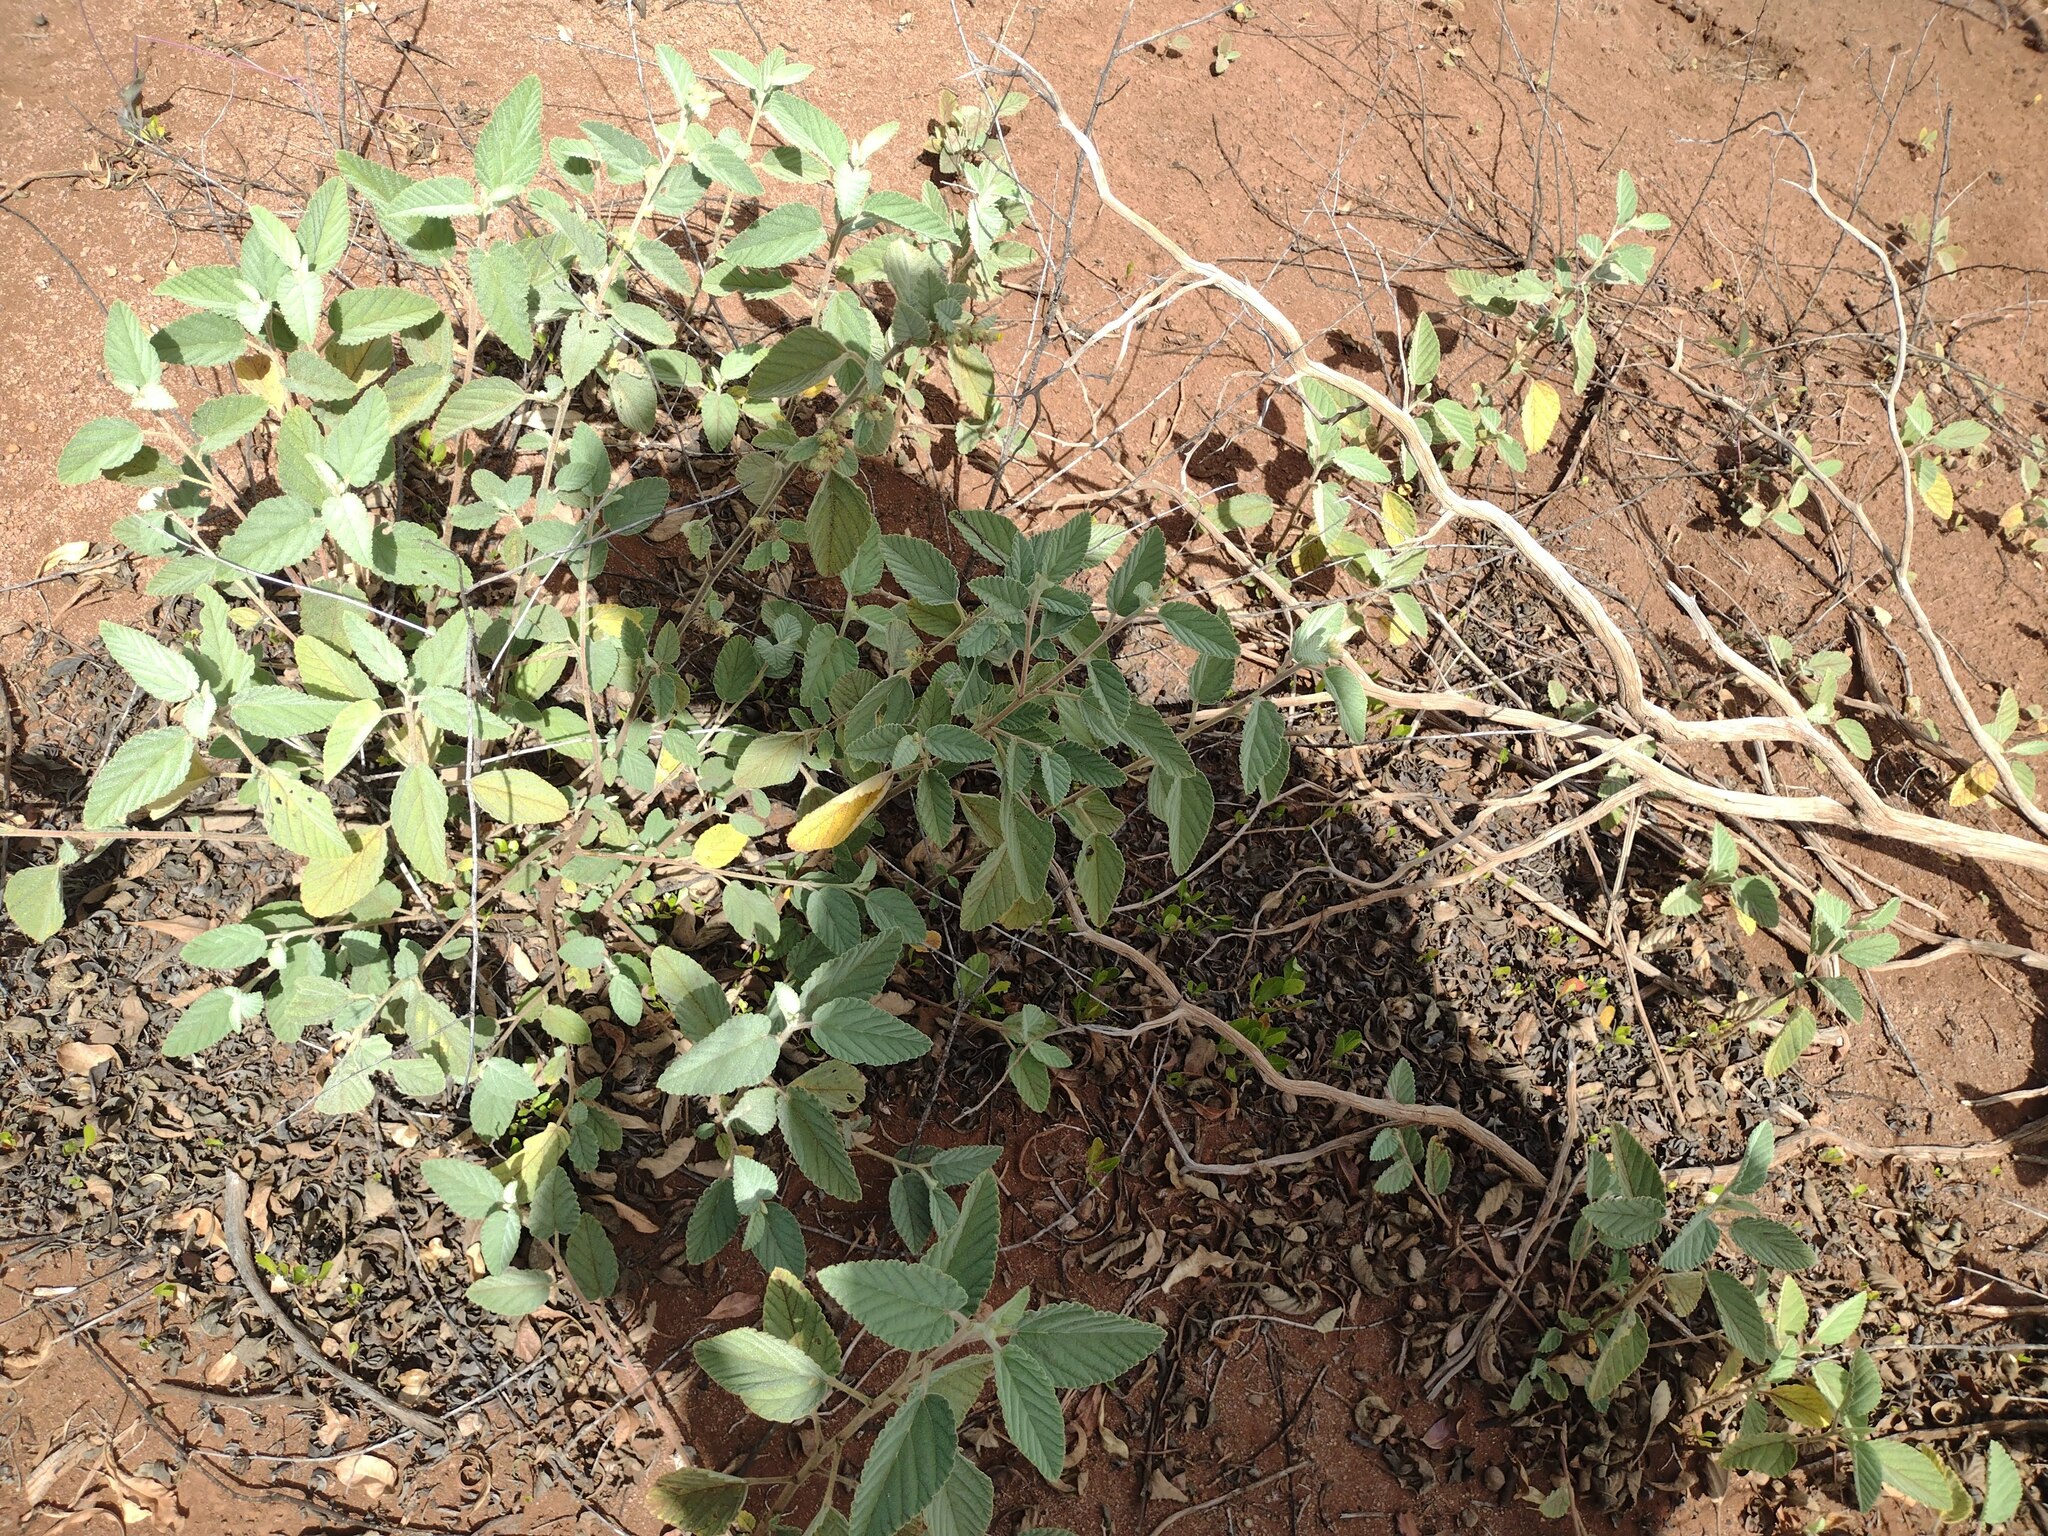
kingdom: Plantae
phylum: Tracheophyta
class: Magnoliopsida
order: Malvales
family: Malvaceae
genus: Waltheria
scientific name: Waltheria indica
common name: Leather-coat
